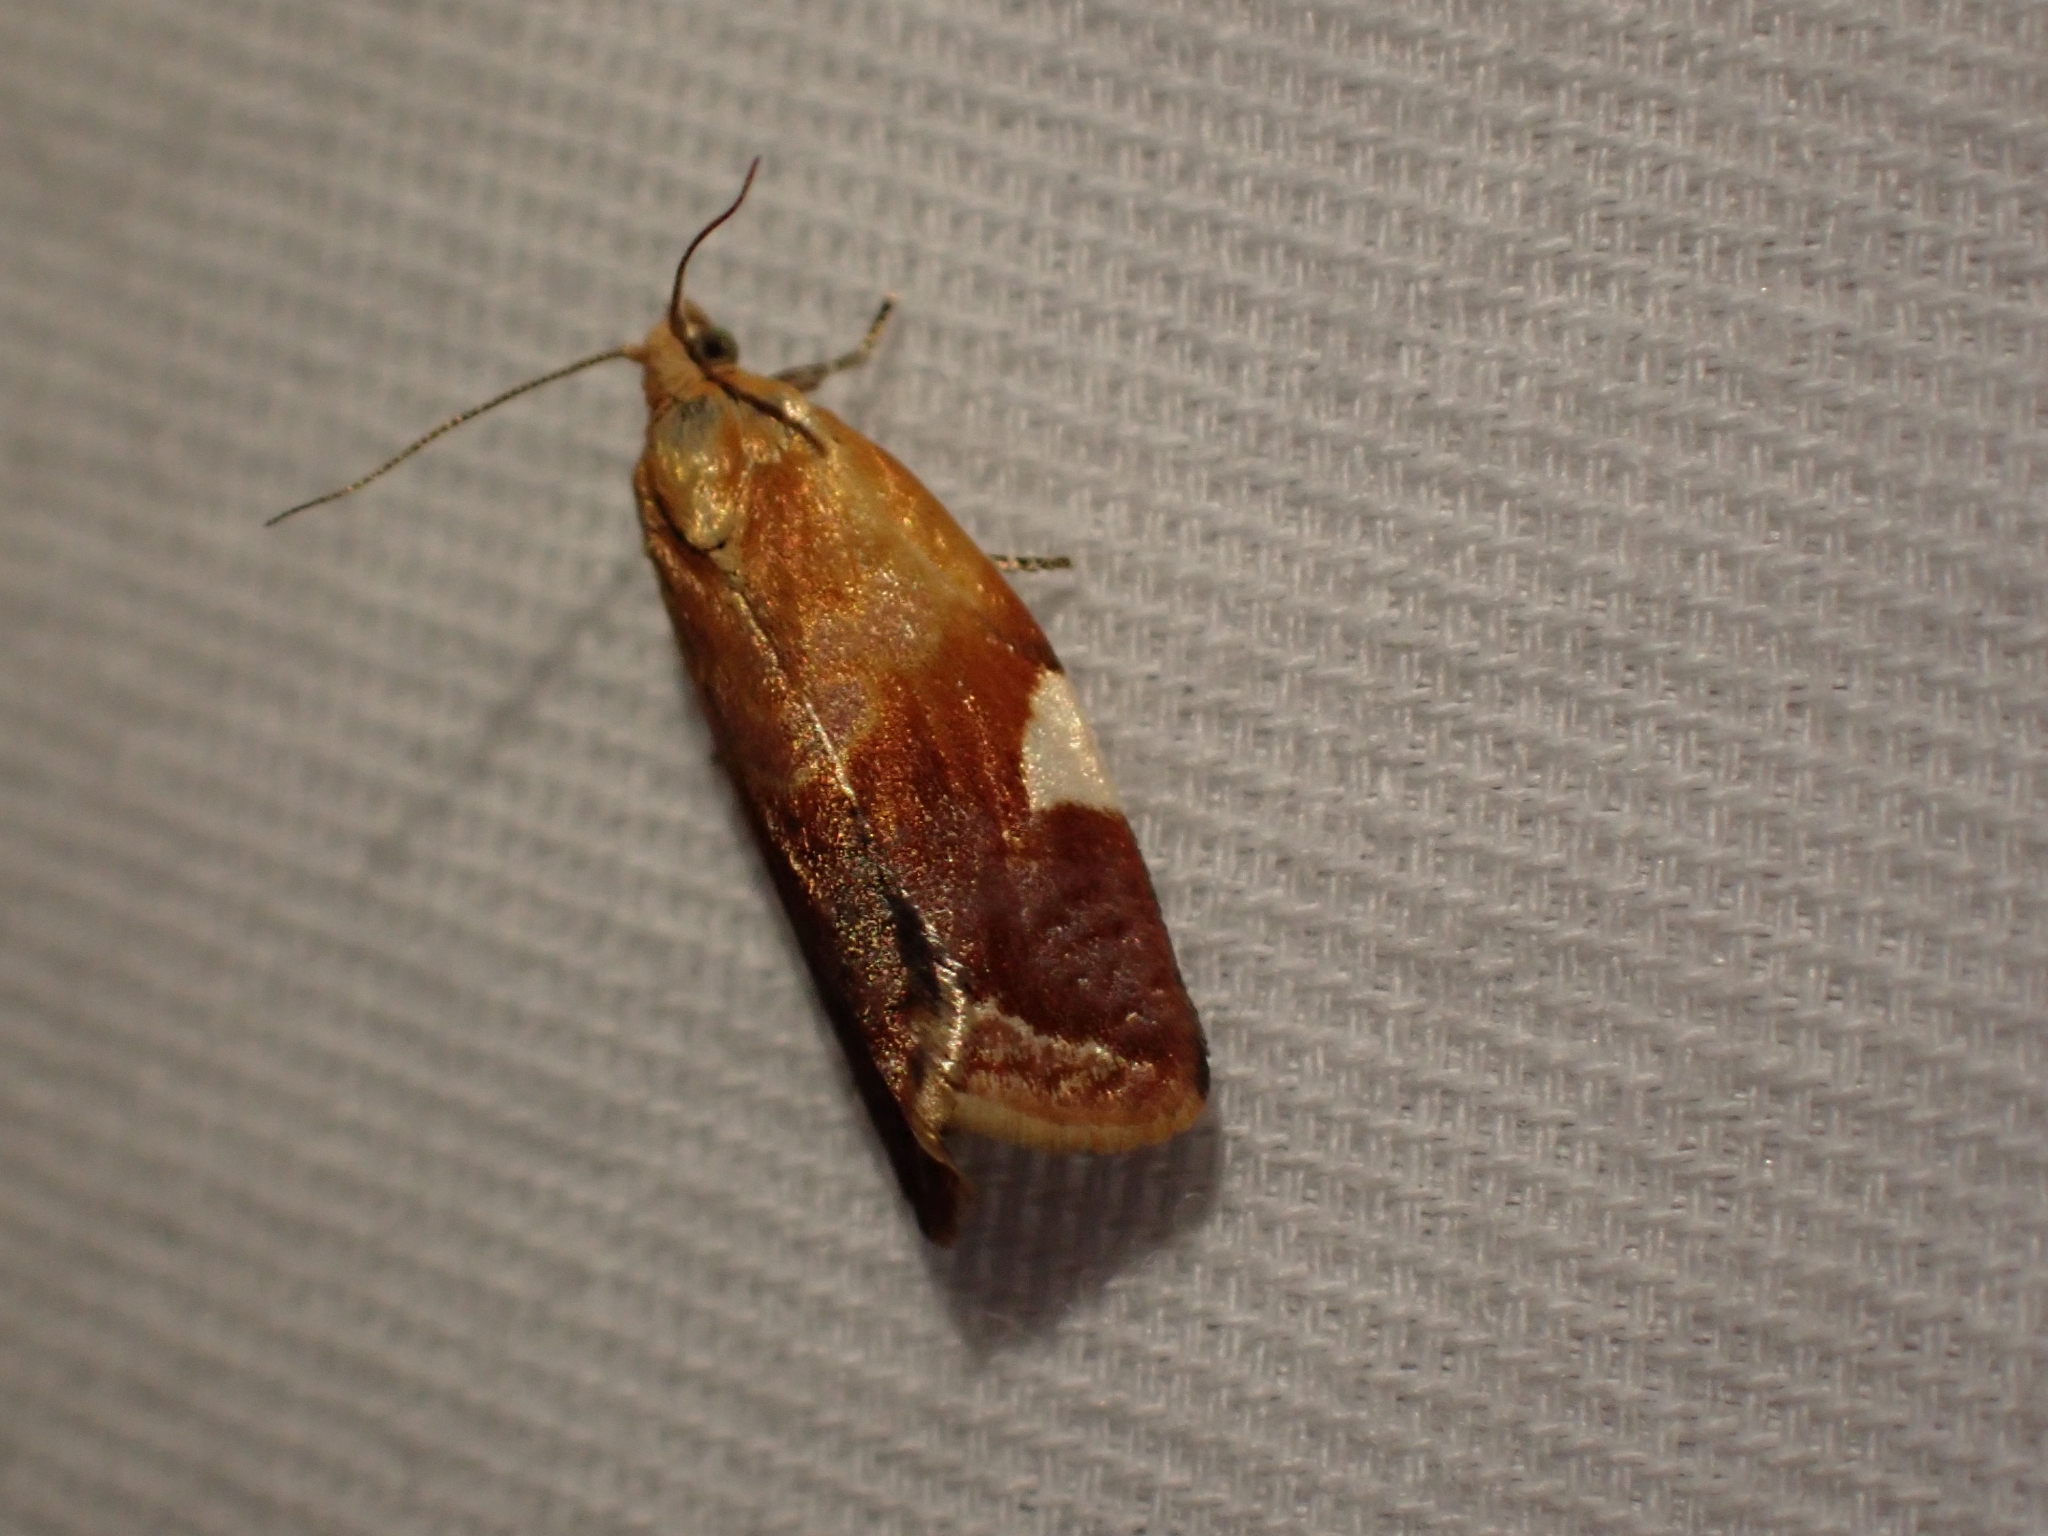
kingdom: Animalia
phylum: Arthropoda
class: Insecta
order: Lepidoptera
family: Tortricidae
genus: Clepsis
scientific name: Clepsis persicana
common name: White triangle tortrix
